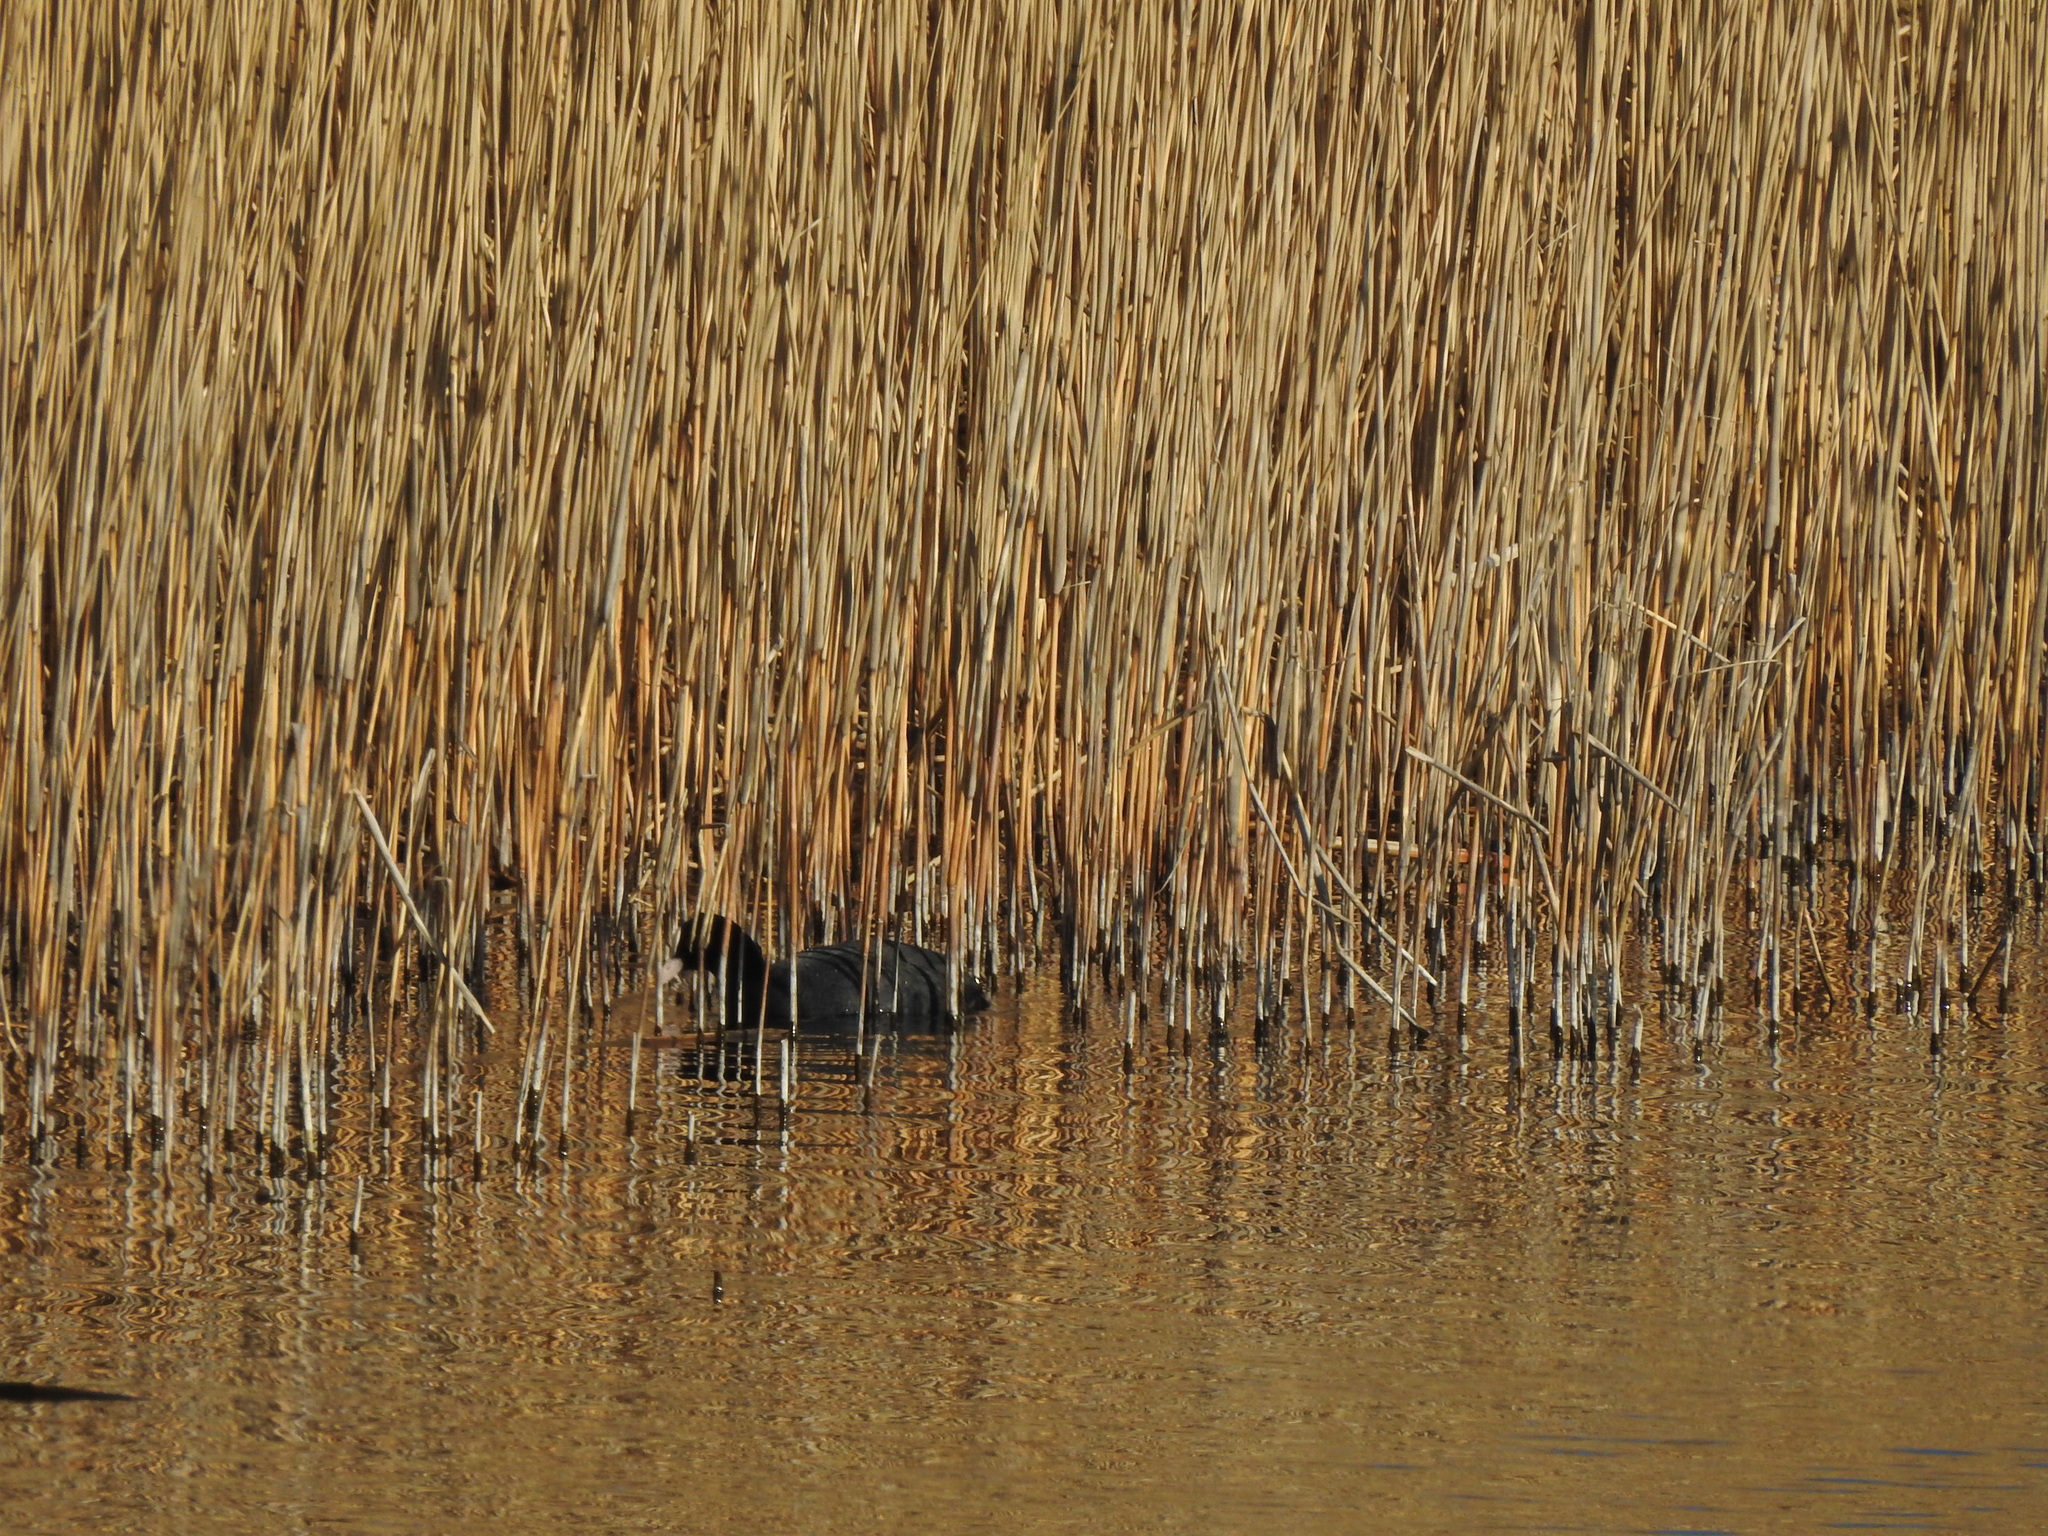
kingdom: Animalia
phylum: Chordata
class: Aves
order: Gruiformes
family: Rallidae
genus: Fulica
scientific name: Fulica atra
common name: Eurasian coot
